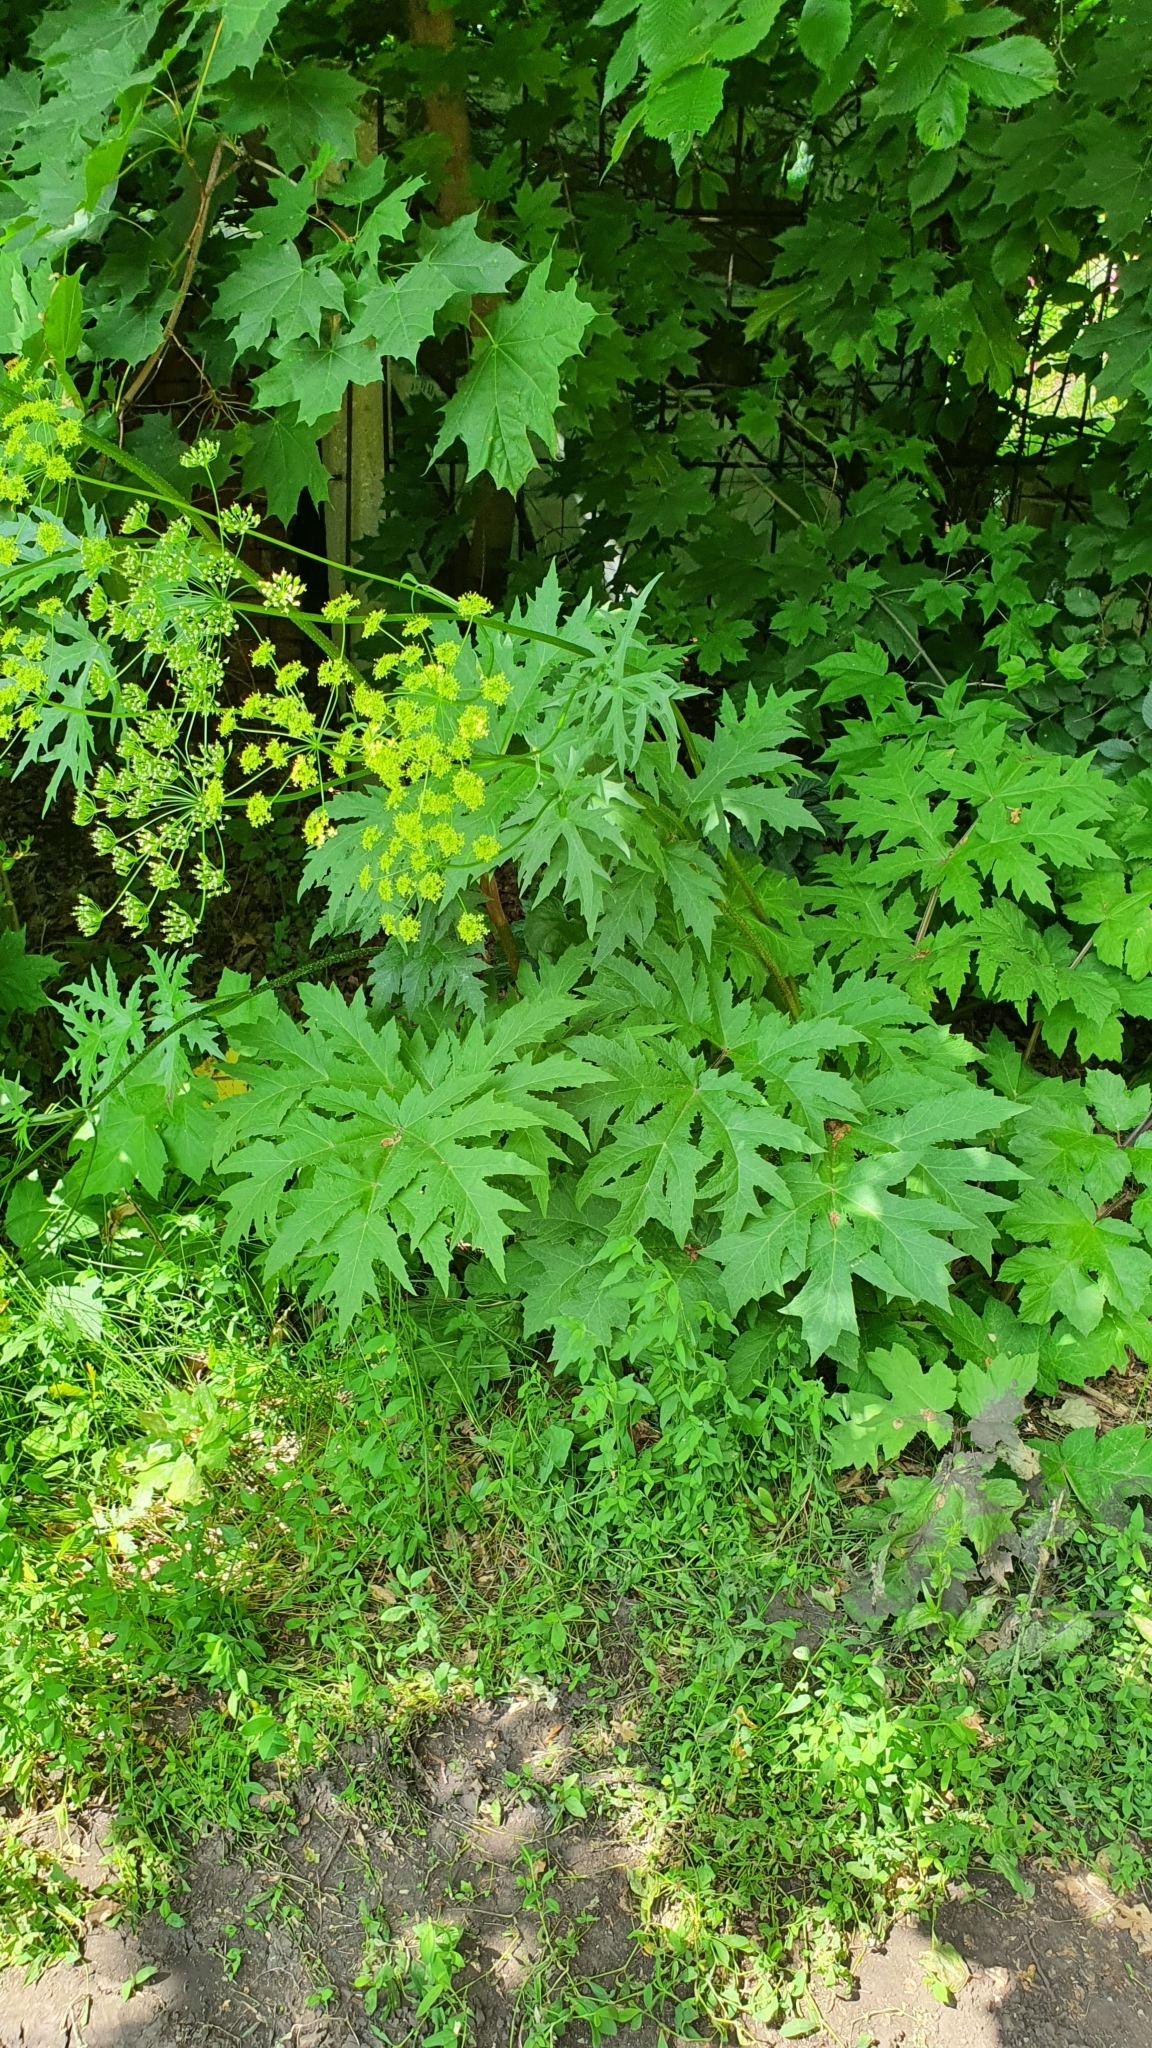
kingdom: Plantae
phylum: Tracheophyta
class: Magnoliopsida
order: Apiales
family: Apiaceae
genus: Heracleum
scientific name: Heracleum sphondylium
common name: Hogweed
